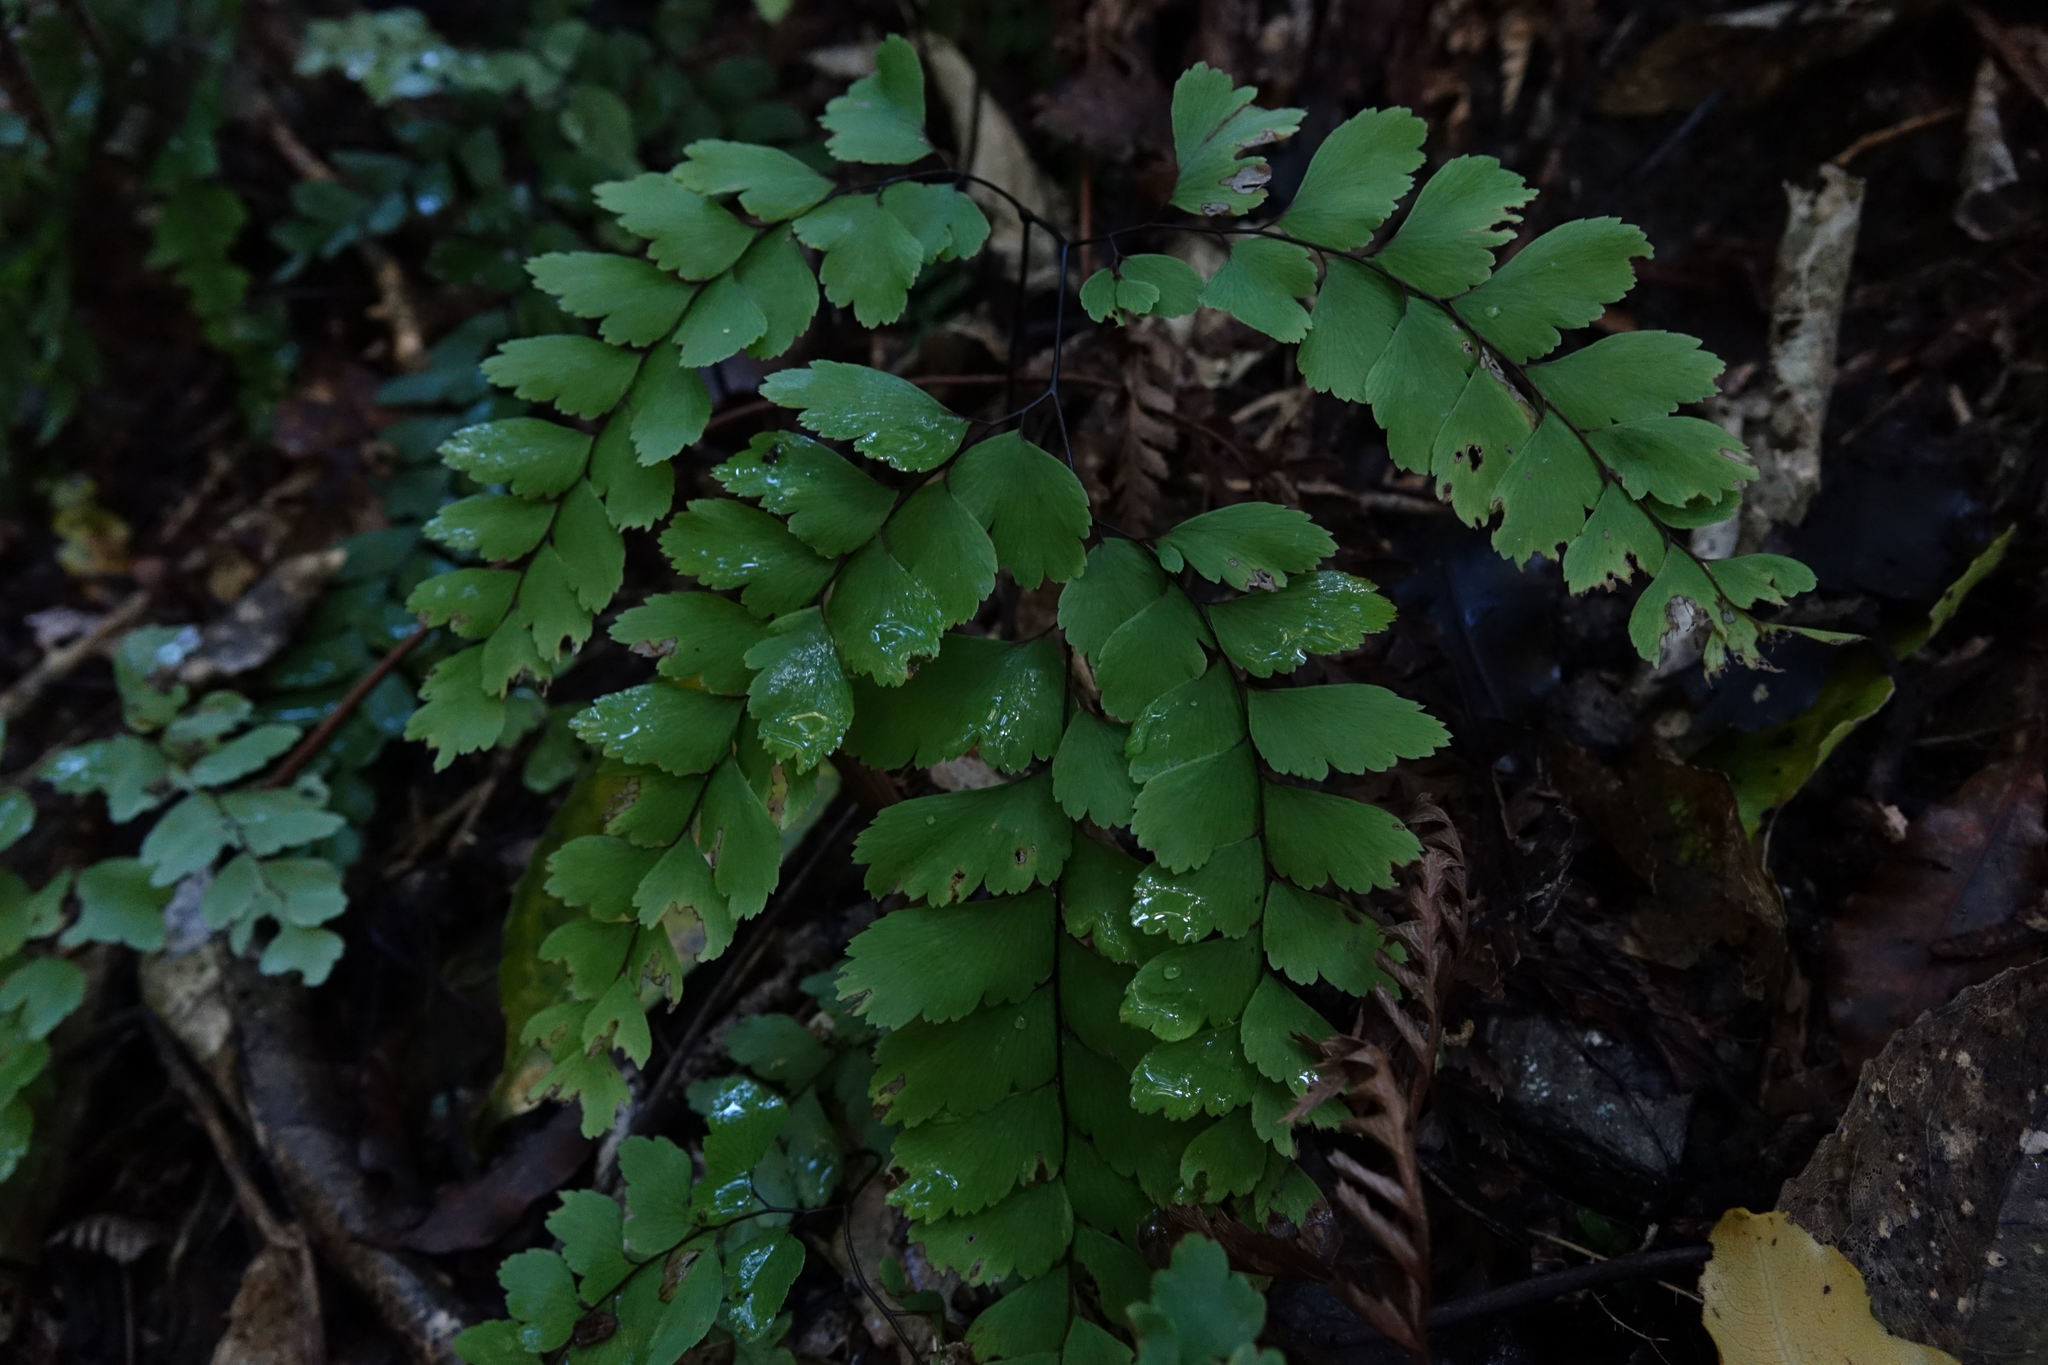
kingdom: Plantae
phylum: Tracheophyta
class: Polypodiopsida
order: Polypodiales
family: Pteridaceae
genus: Adiantum
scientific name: Adiantum cunninghamii
